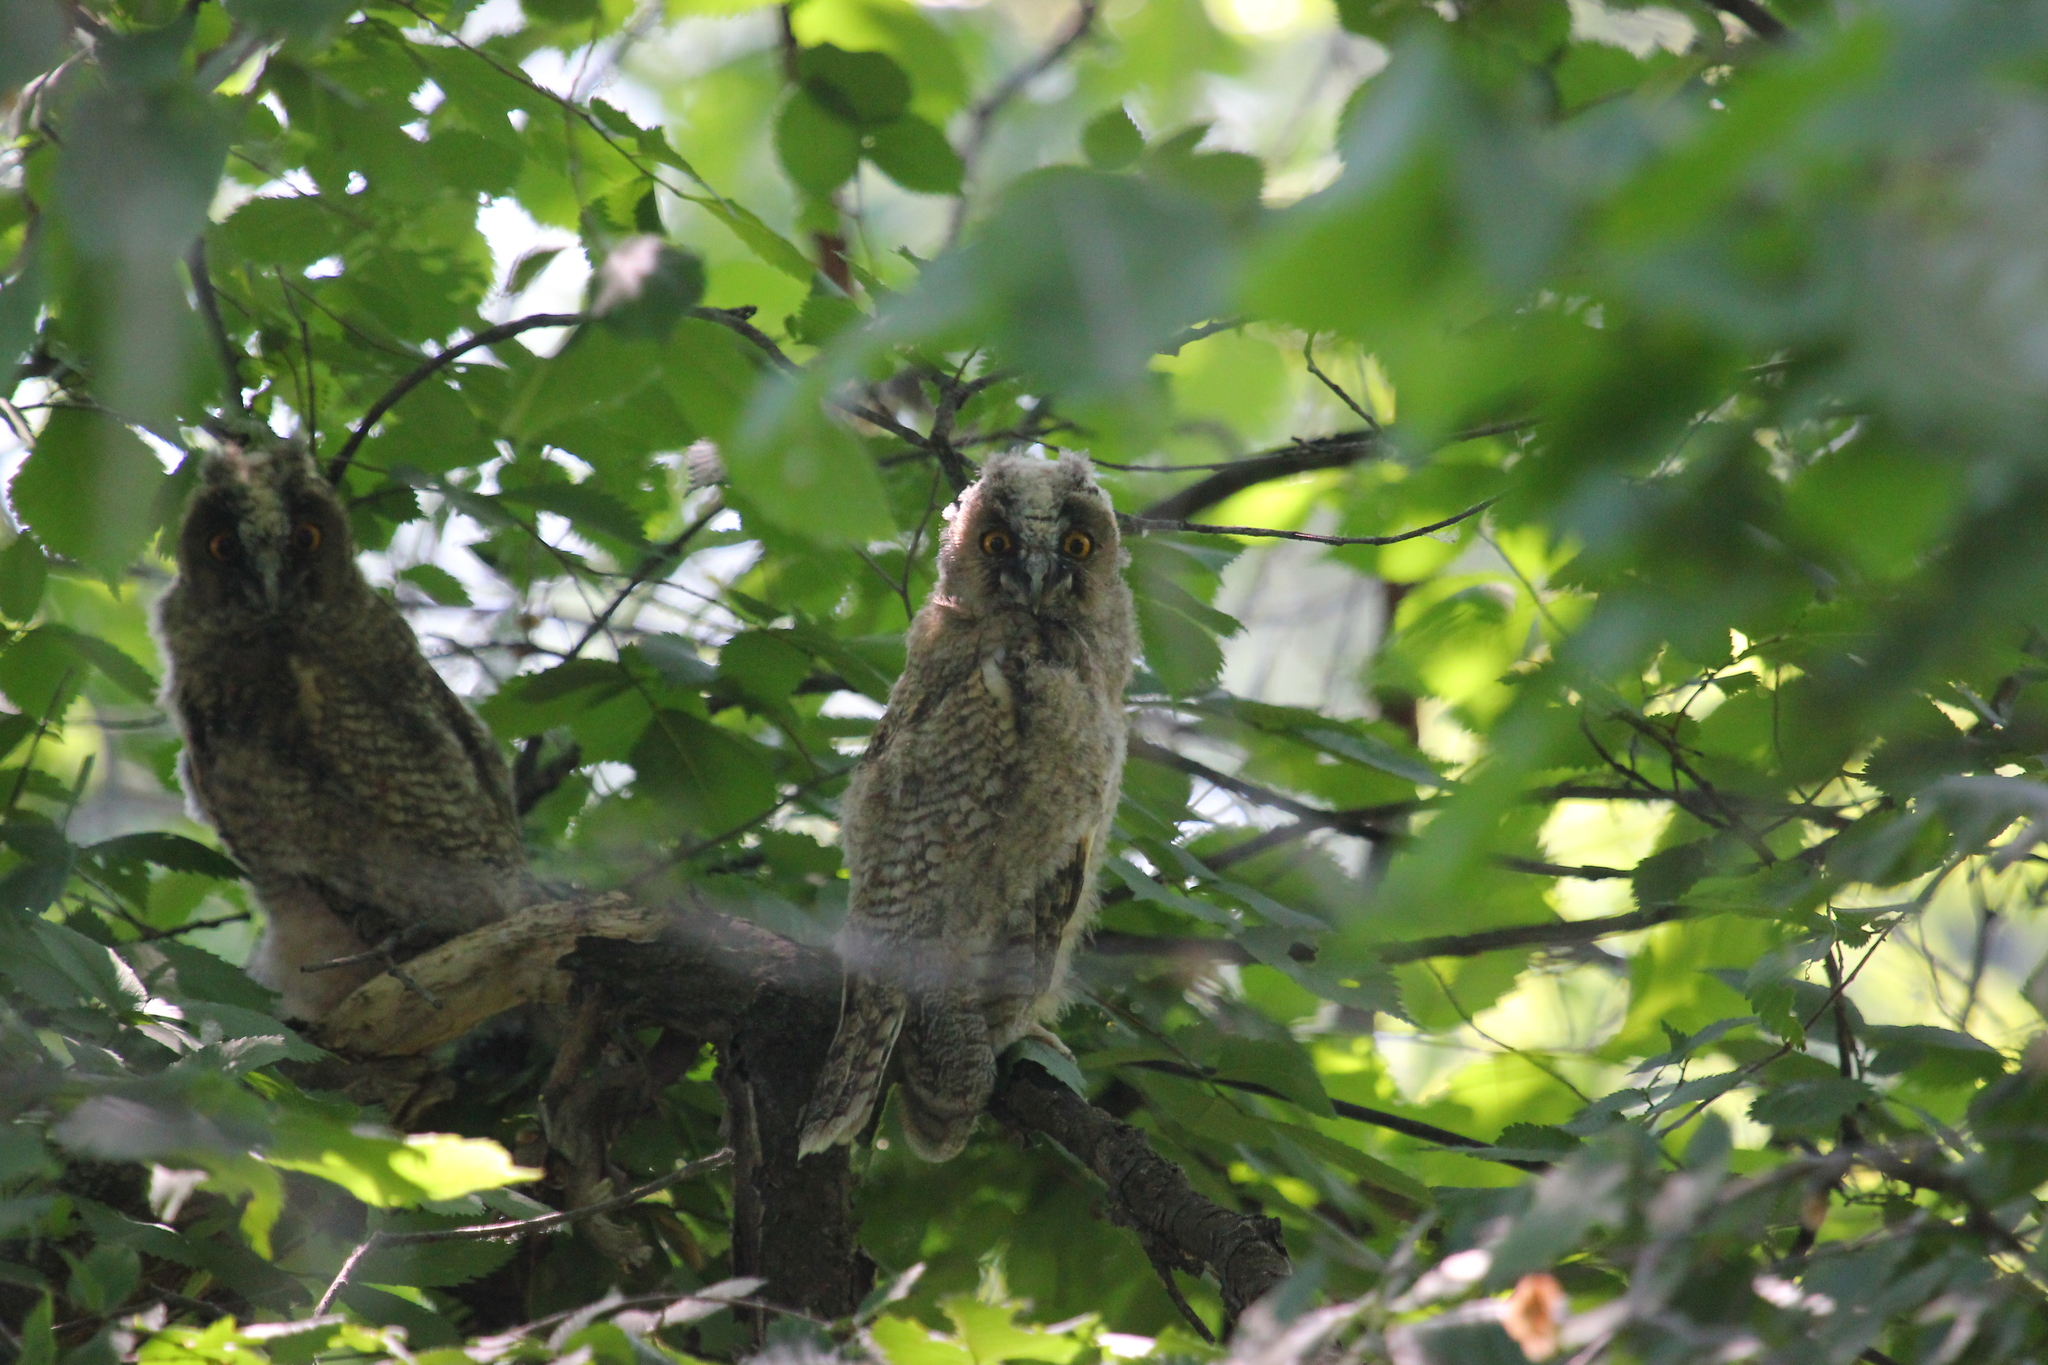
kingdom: Animalia
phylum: Chordata
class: Aves
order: Strigiformes
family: Strigidae
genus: Asio
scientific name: Asio otus
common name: Long-eared owl
